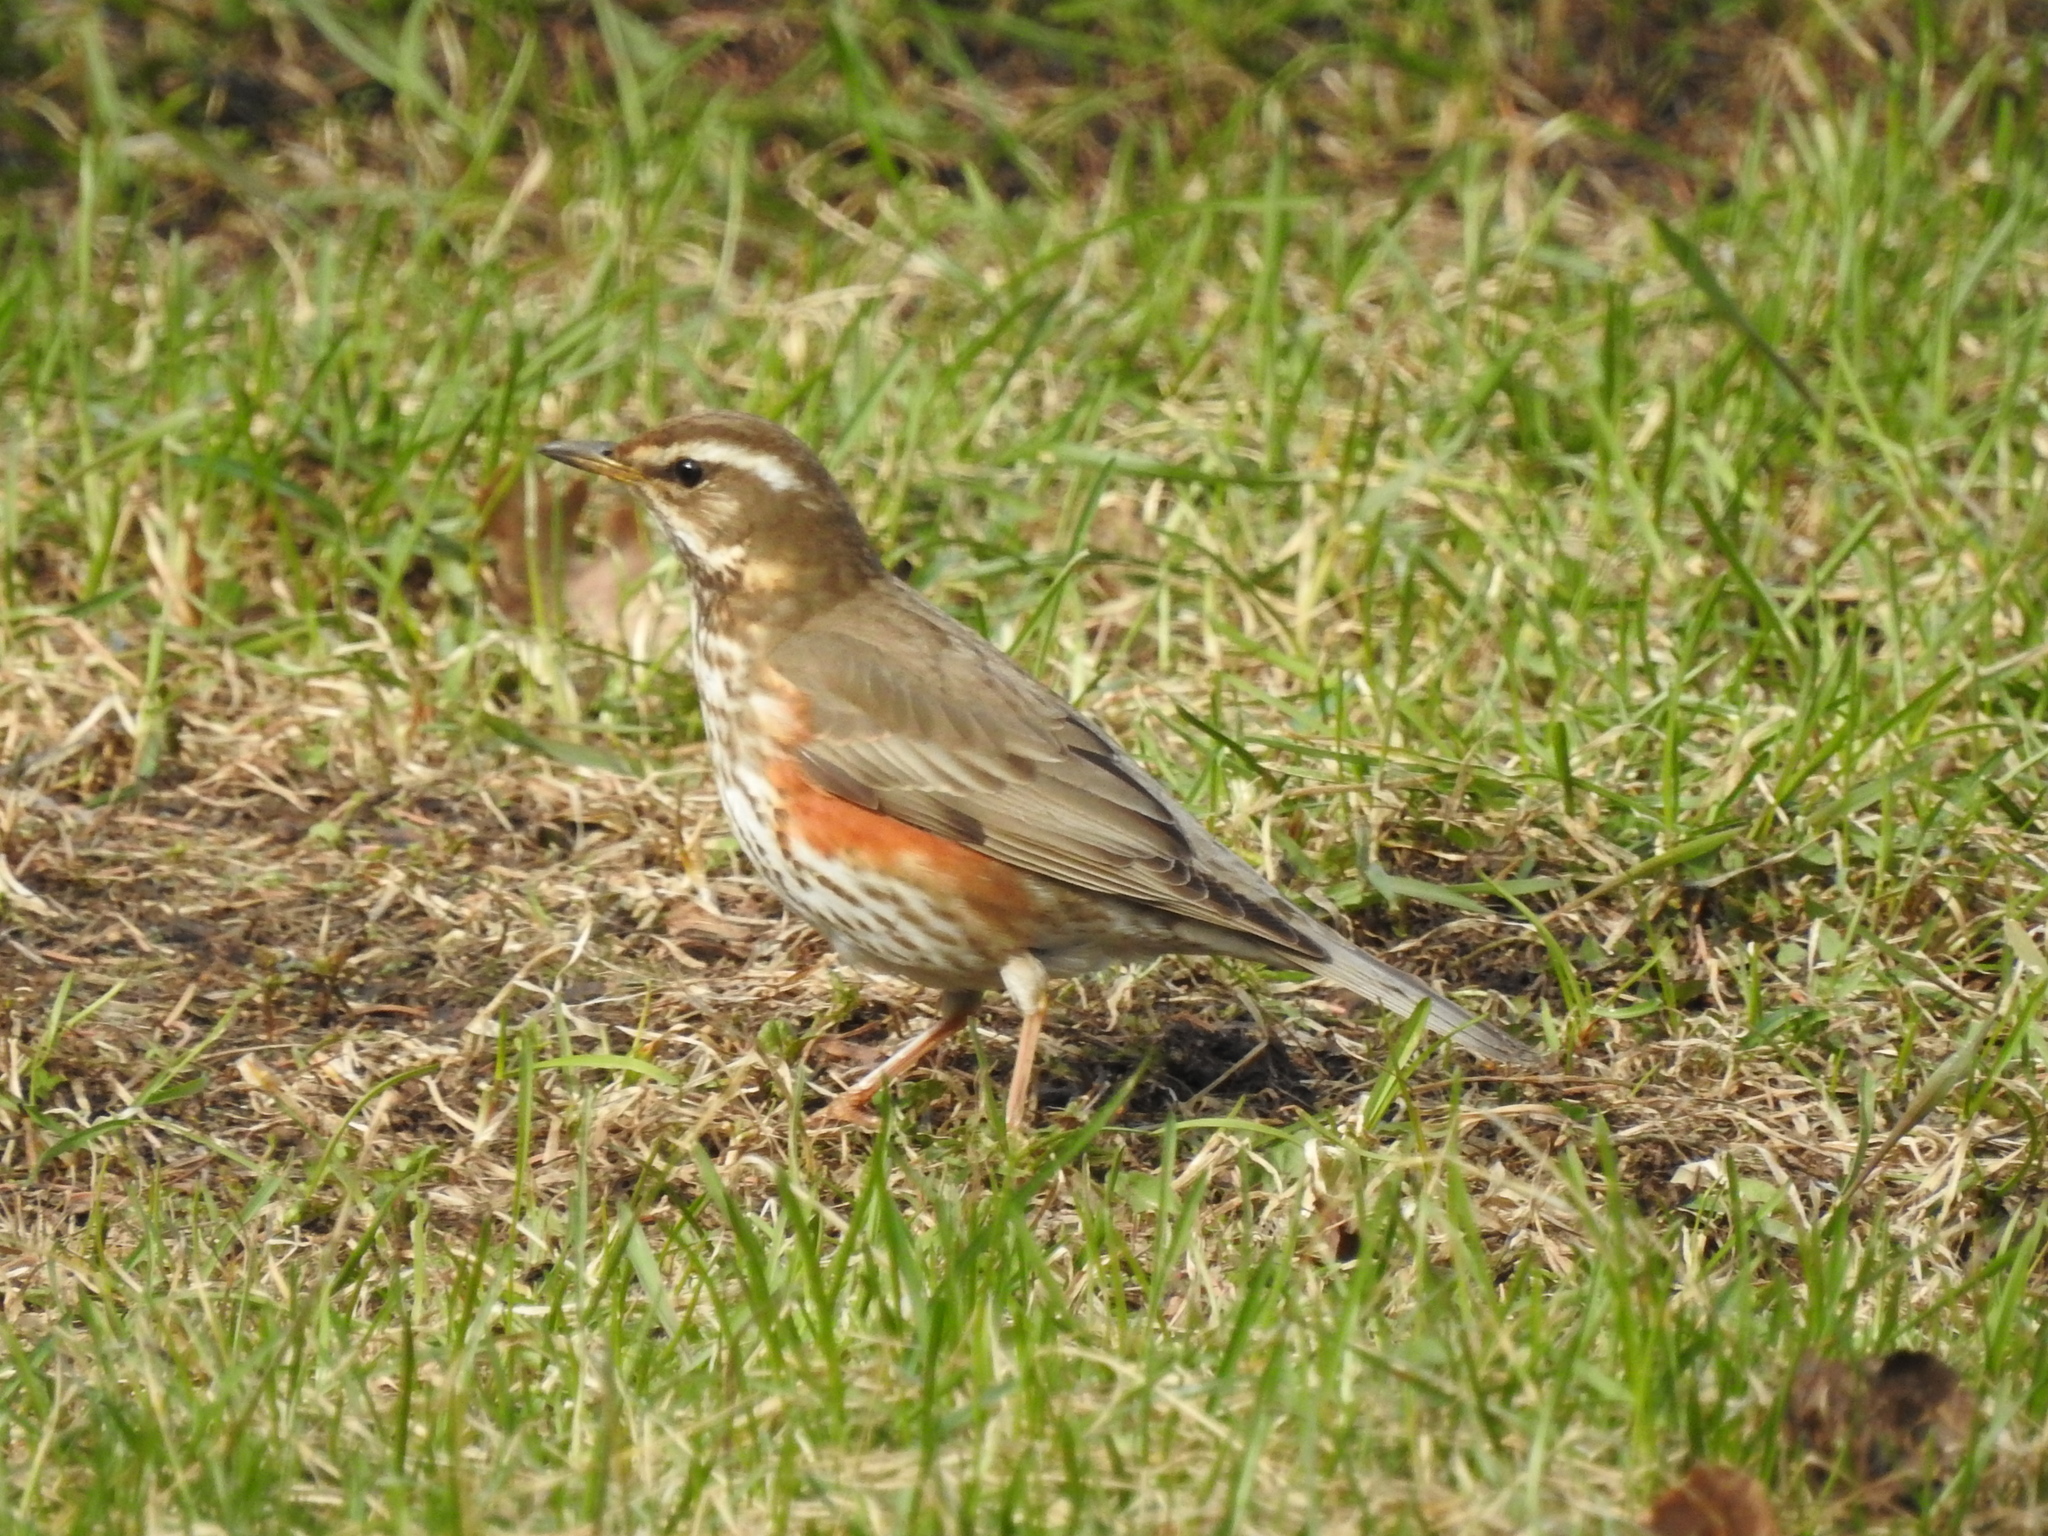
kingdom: Animalia
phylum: Chordata
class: Aves
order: Passeriformes
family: Turdidae
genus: Turdus
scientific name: Turdus iliacus
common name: Redwing
